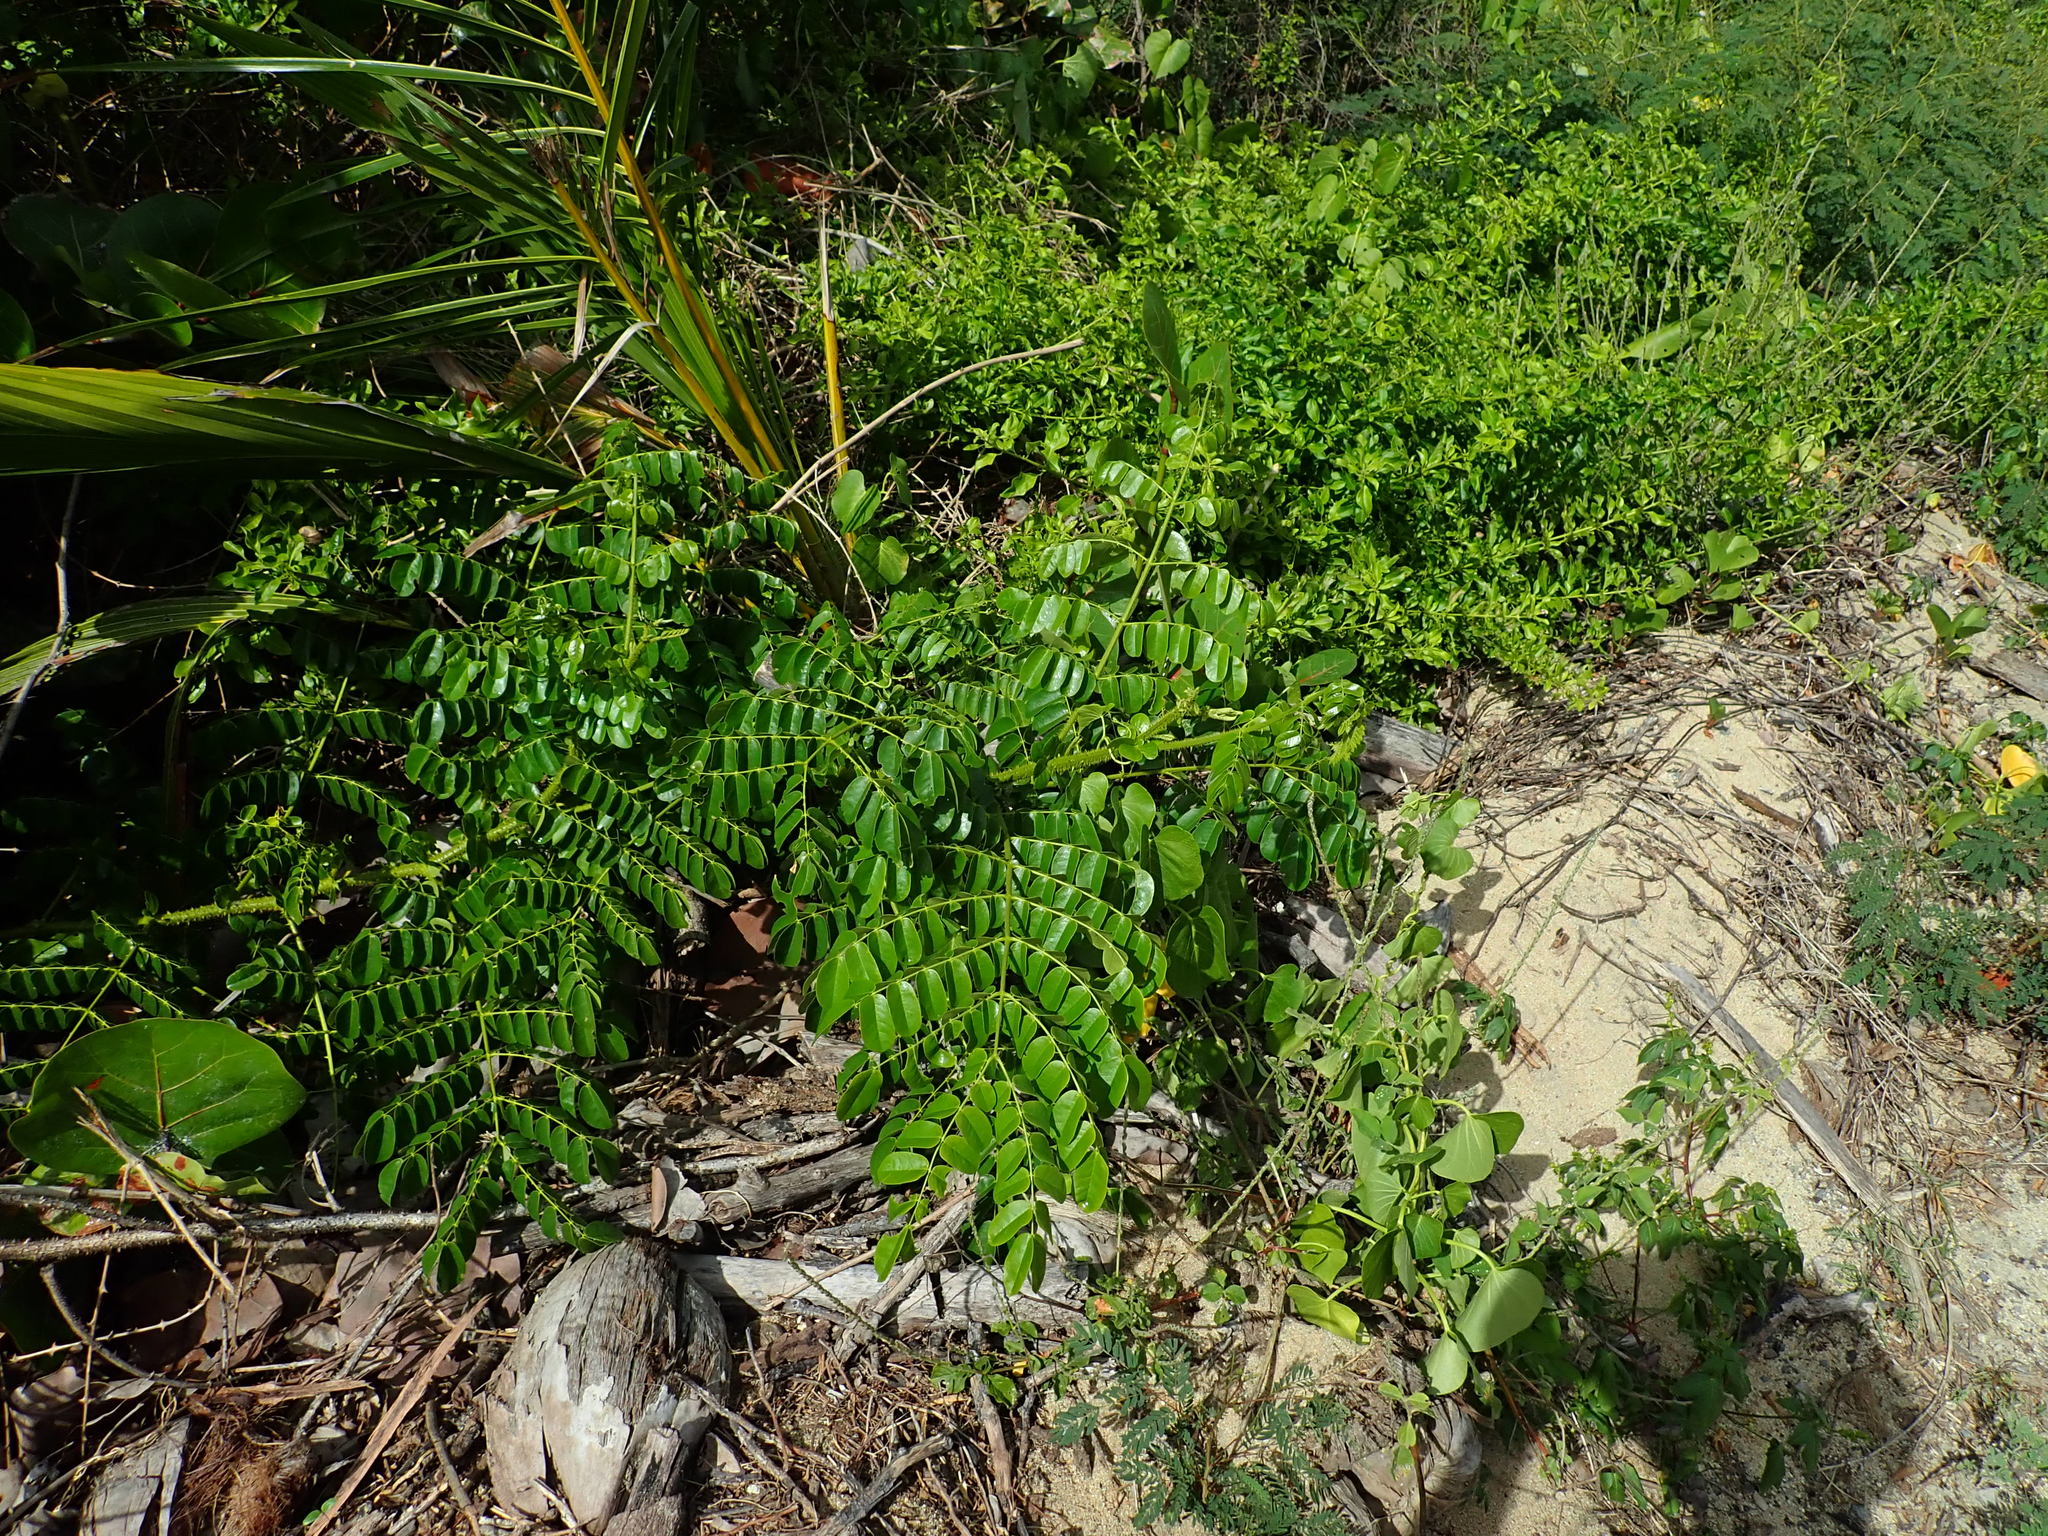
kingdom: Plantae
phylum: Tracheophyta
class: Magnoliopsida
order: Fabales
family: Fabaceae
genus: Guilandina
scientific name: Guilandina bonduc
